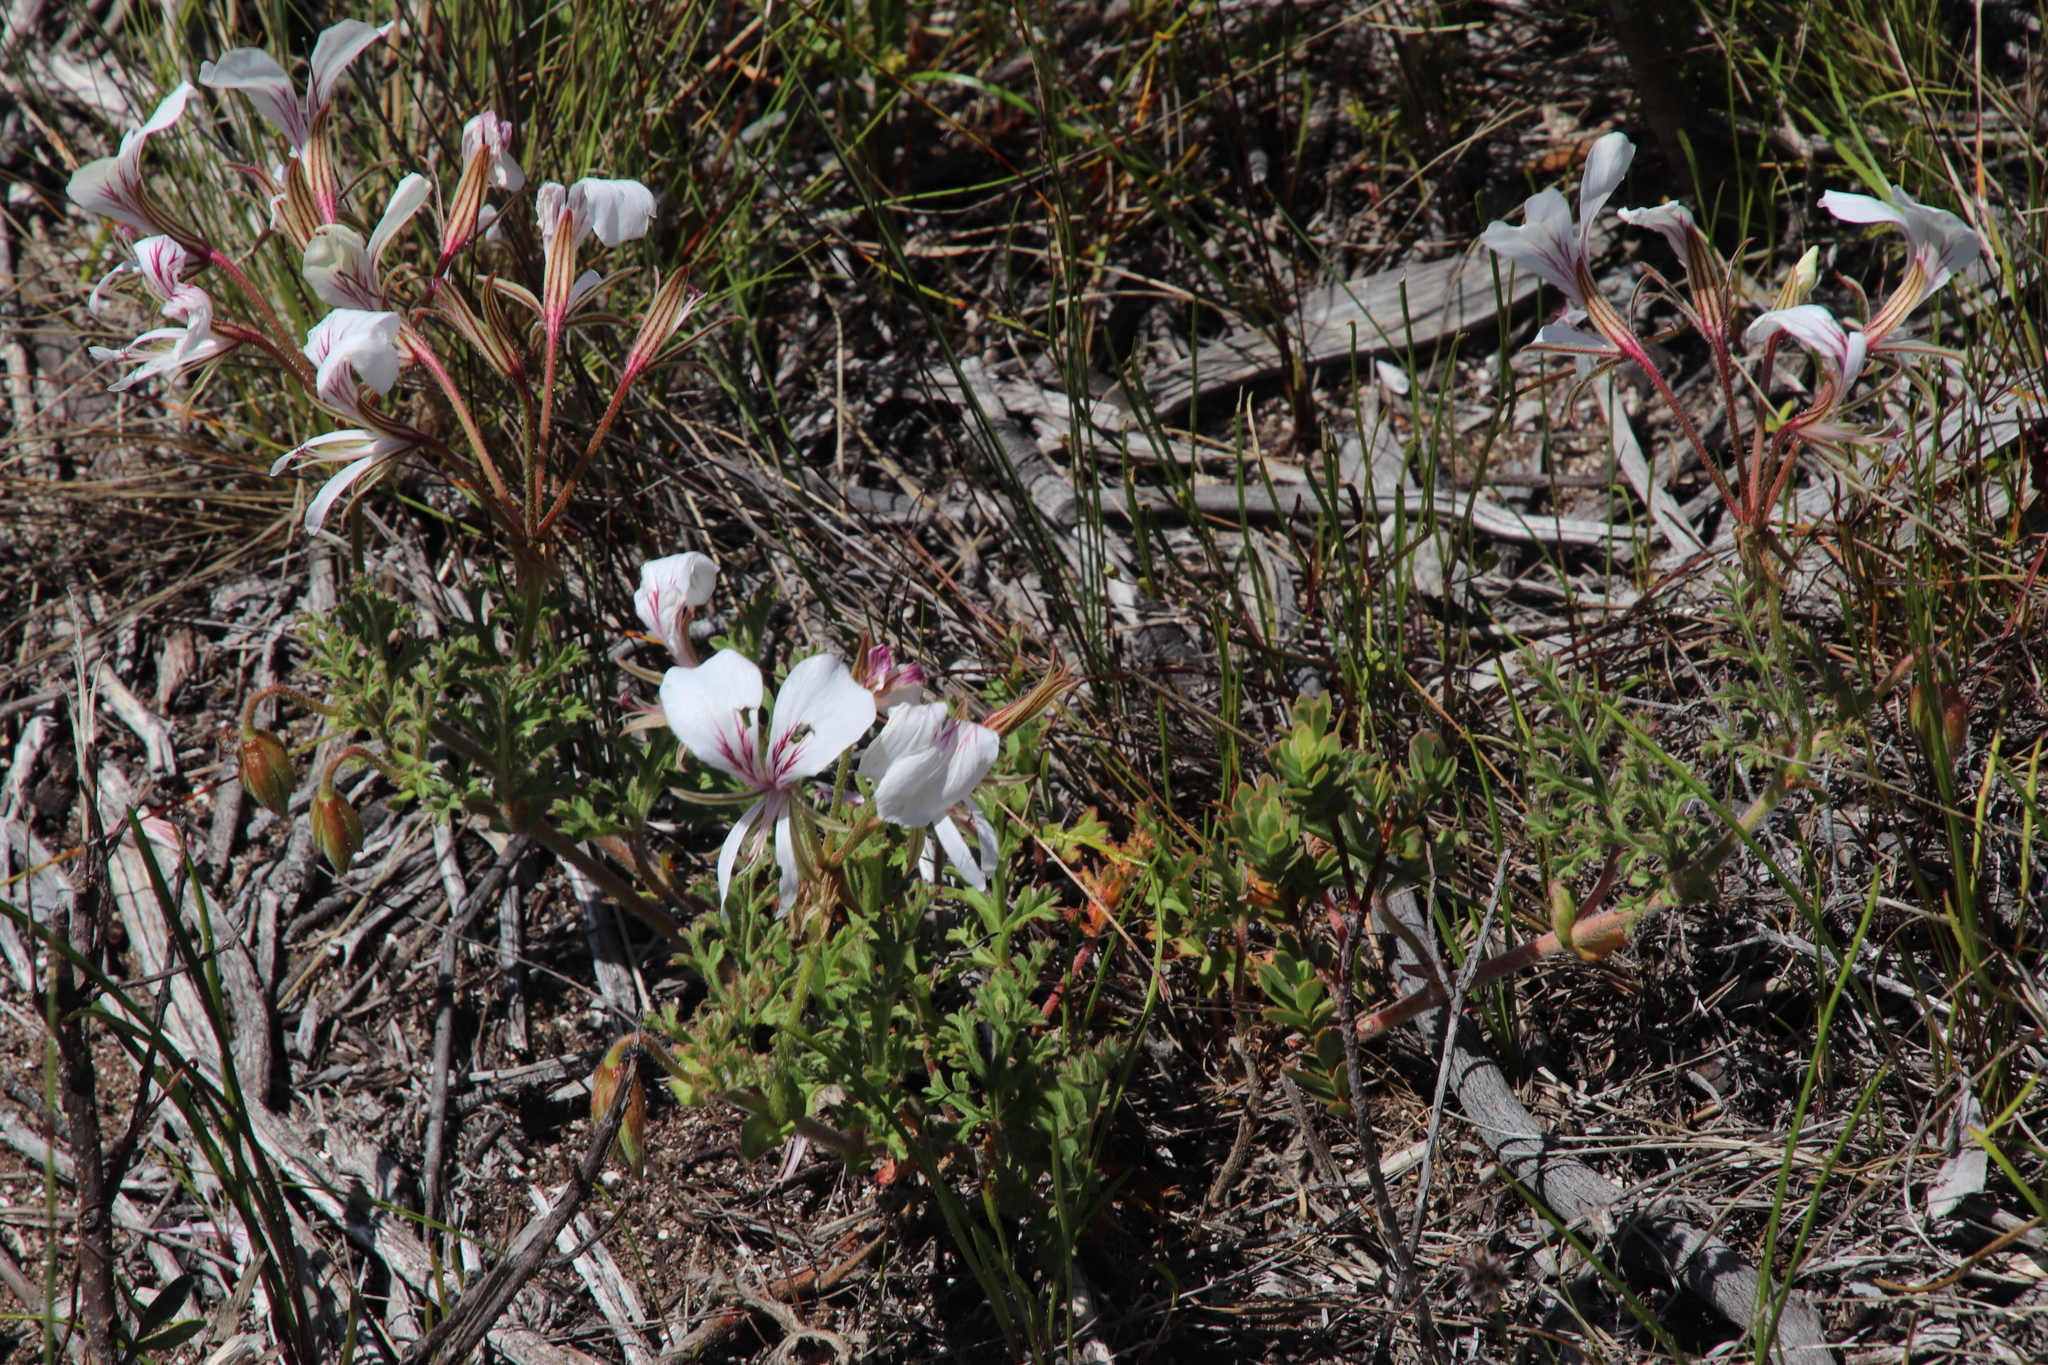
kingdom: Plantae
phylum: Tracheophyta
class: Magnoliopsida
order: Geraniales
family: Geraniaceae
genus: Pelargonium
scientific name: Pelargonium suburbanum
